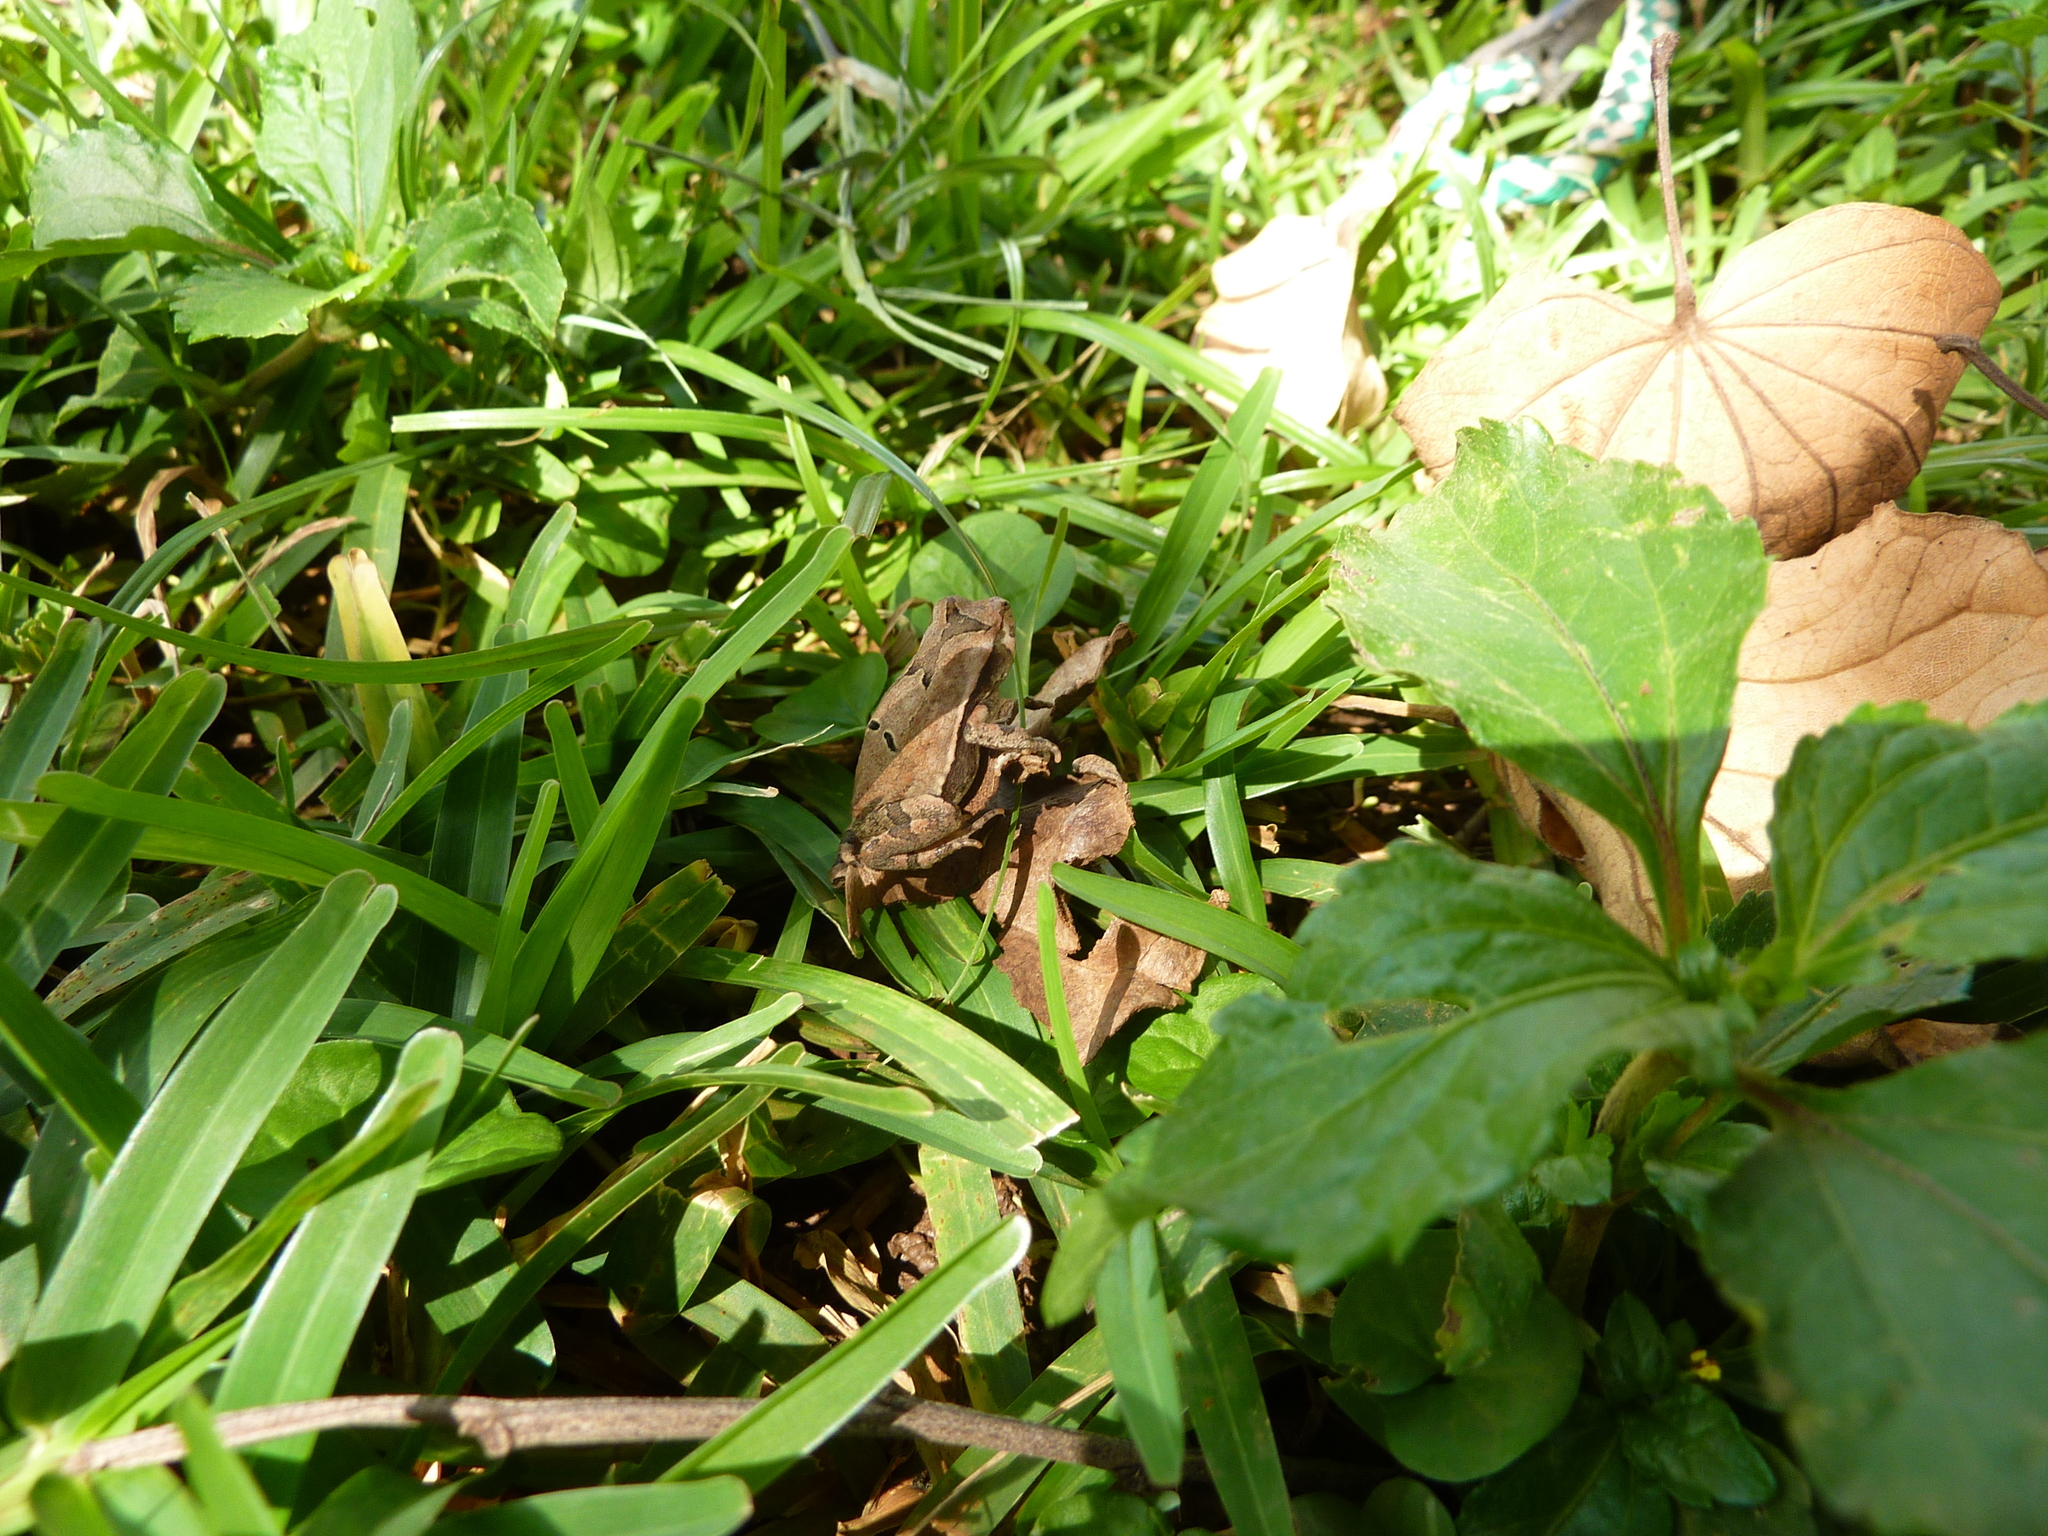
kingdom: Animalia
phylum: Chordata
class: Amphibia
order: Anura
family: Bufonidae
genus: Schismaderma
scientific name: Schismaderma carens
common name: African split-skin toad
